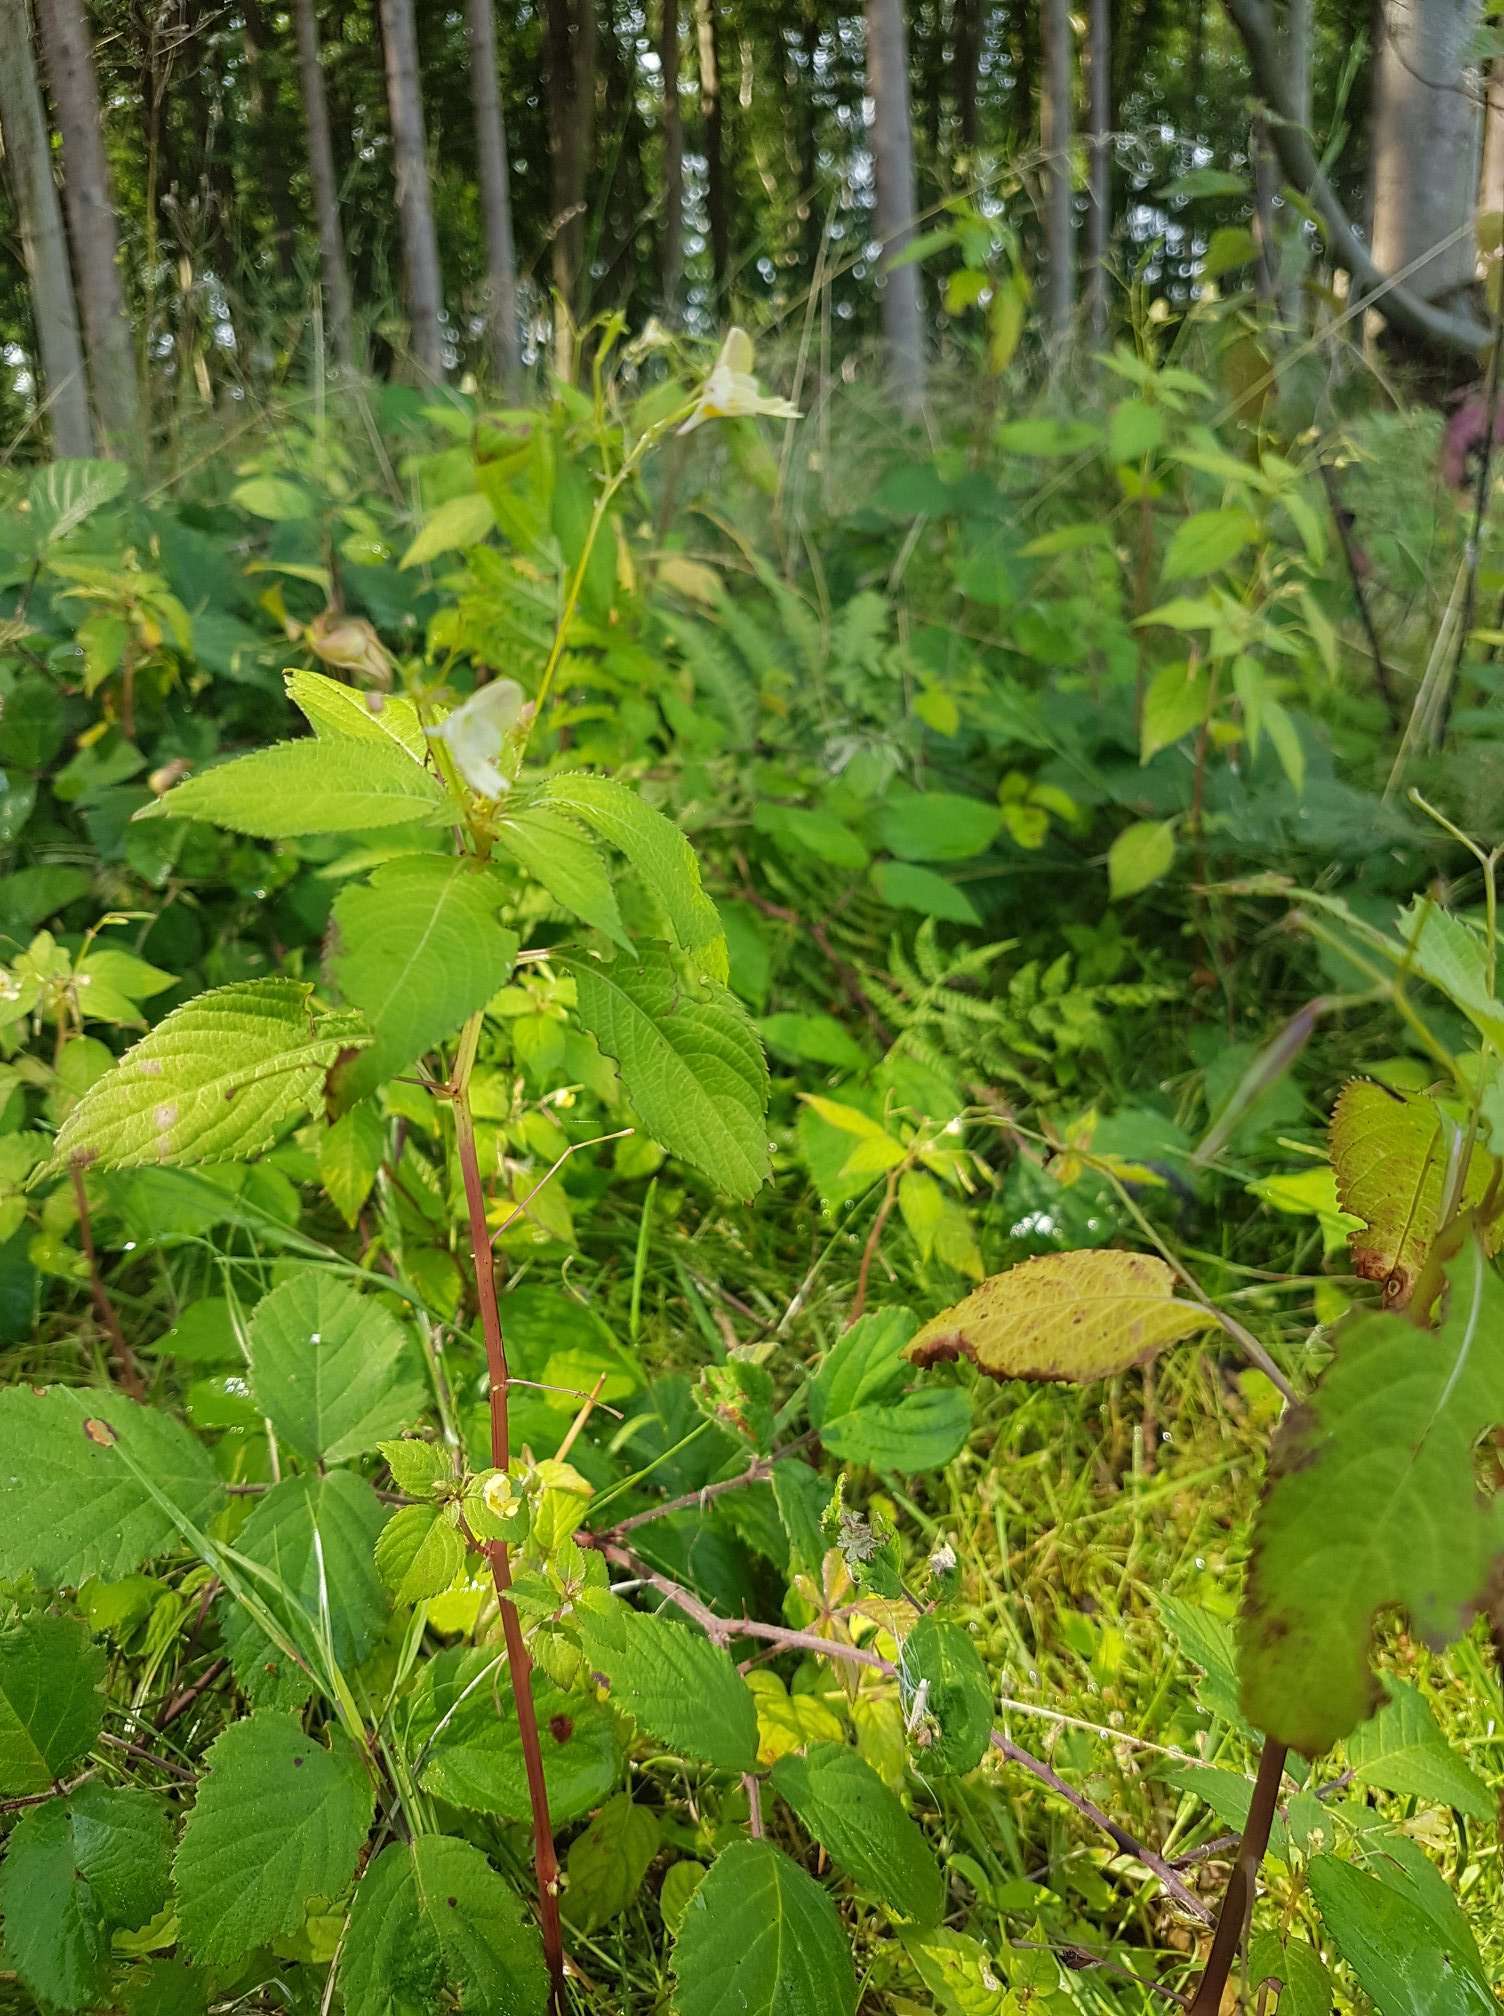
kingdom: Plantae
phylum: Tracheophyta
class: Magnoliopsida
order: Ericales
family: Balsaminaceae
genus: Impatiens
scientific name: Impatiens parviflora
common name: Small balsam
